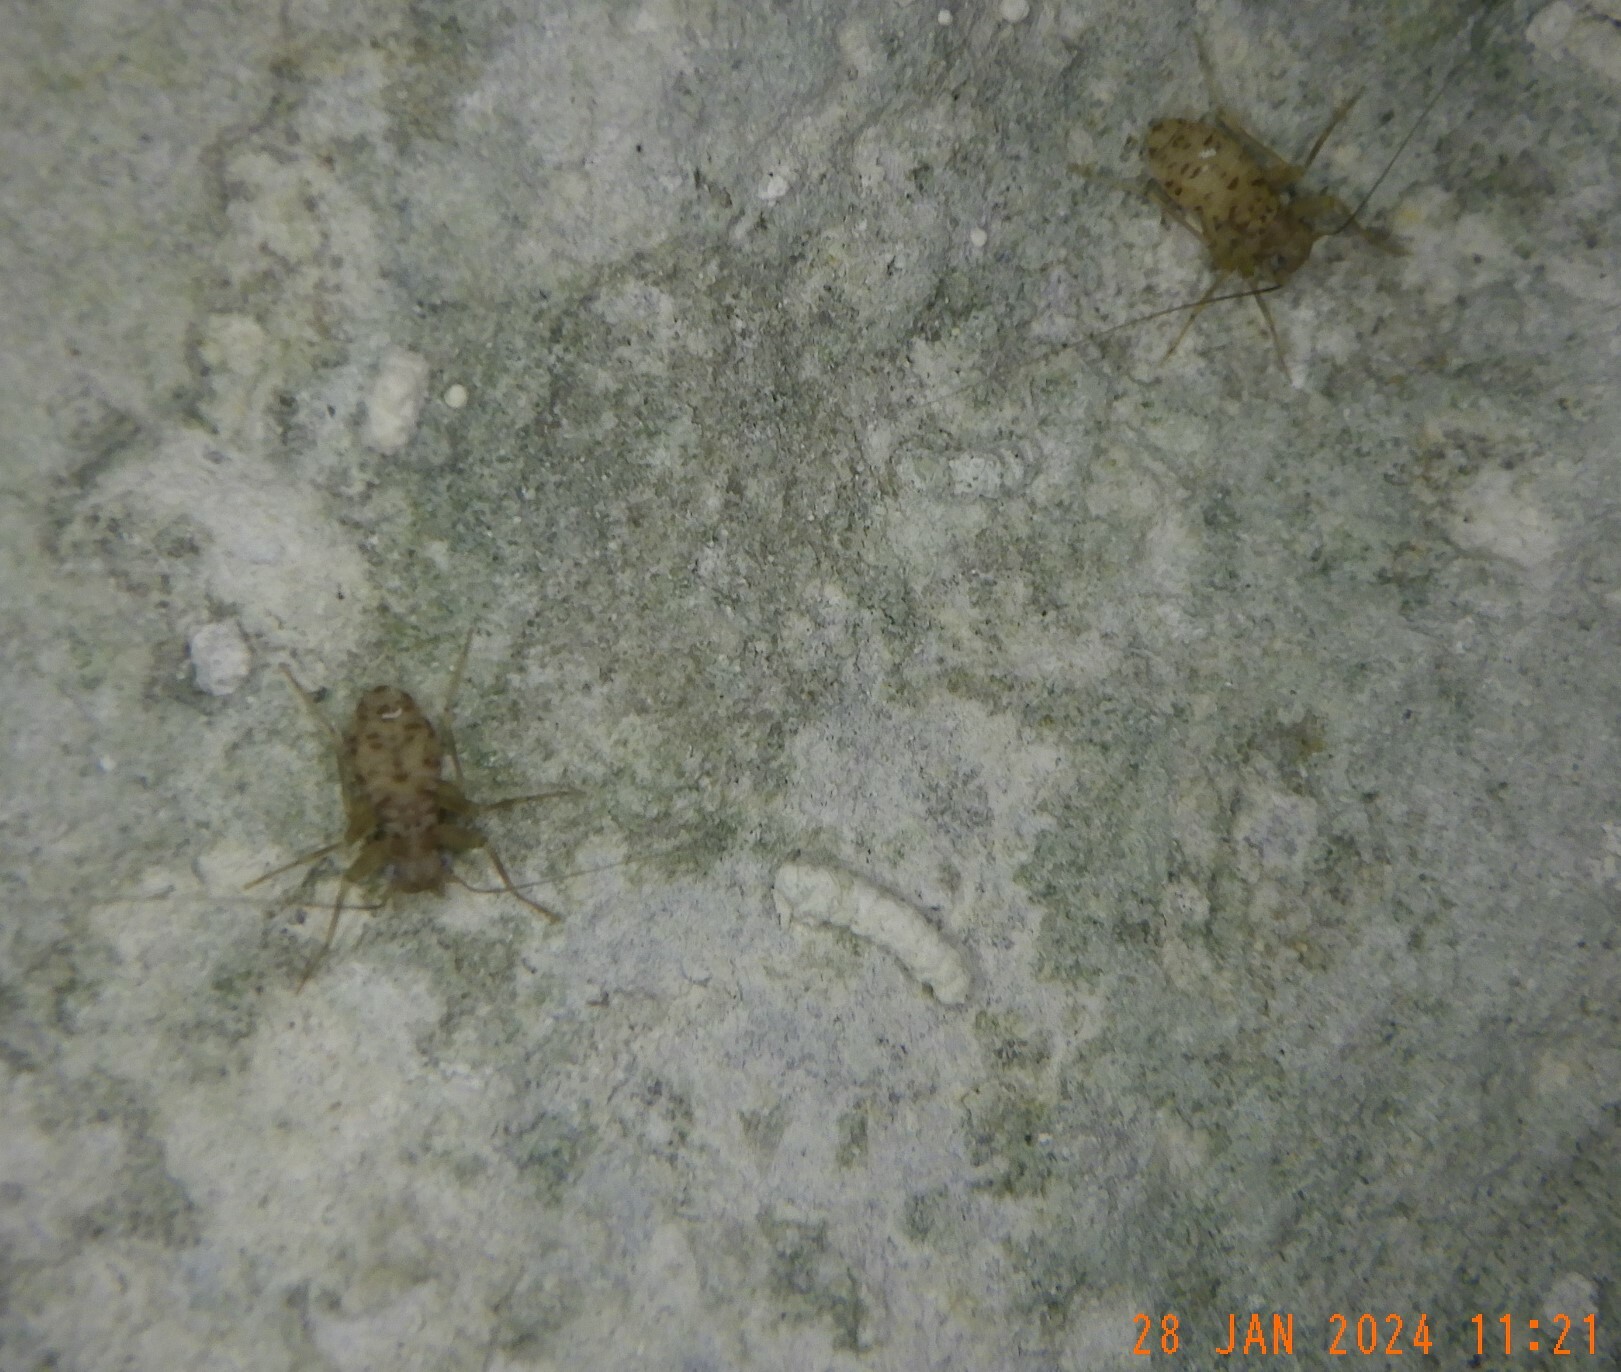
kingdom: Animalia
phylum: Arthropoda
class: Insecta
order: Psocodea
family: Prionoglarididae
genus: Prionoglaris
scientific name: Prionoglaris stygia
